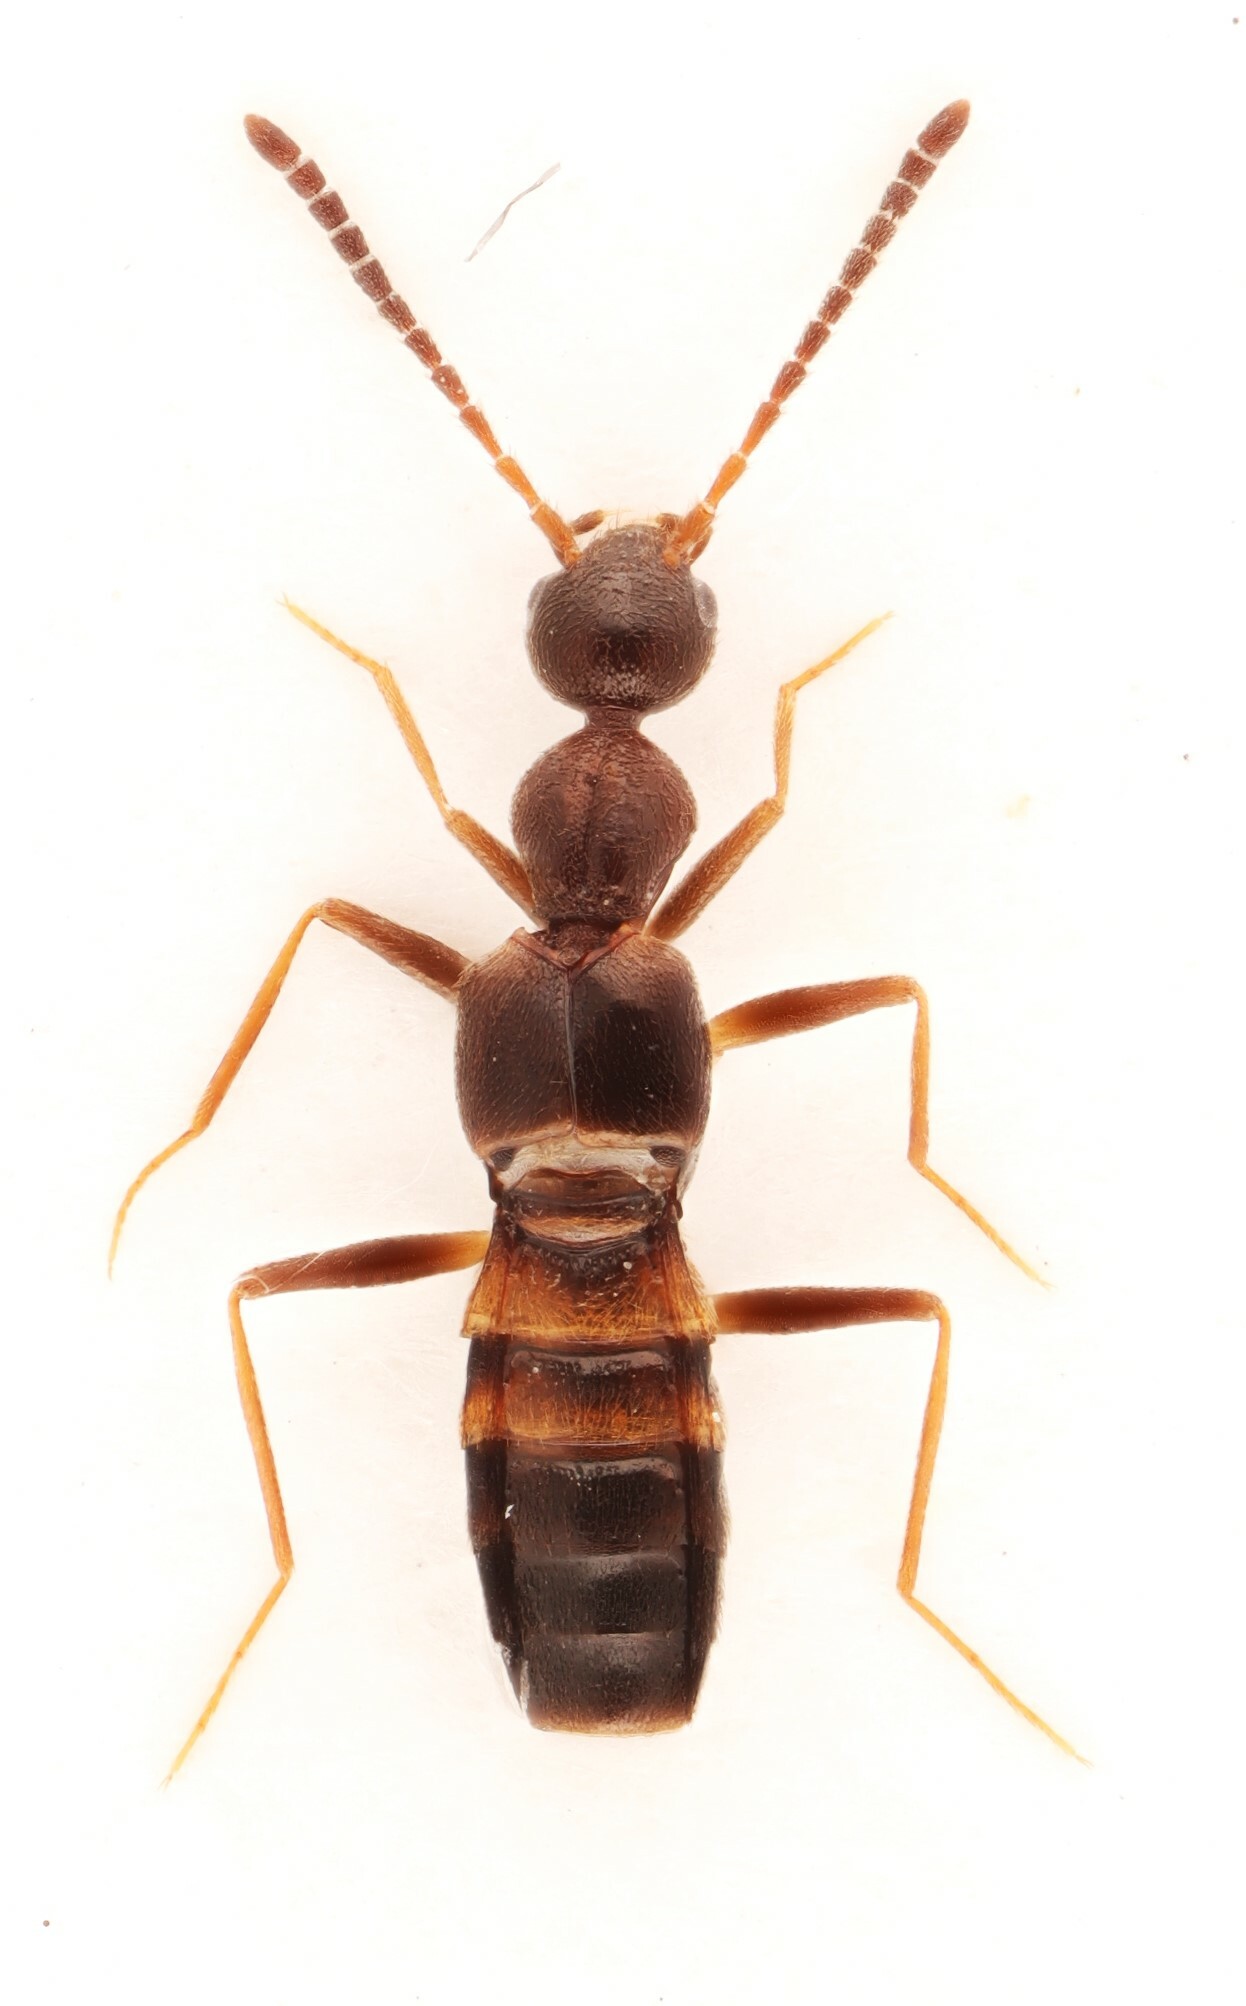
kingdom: Animalia
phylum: Arthropoda
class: Insecta
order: Coleoptera
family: Staphylinidae
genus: Myrmecocephalus
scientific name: Myrmecocephalus cingulatus
